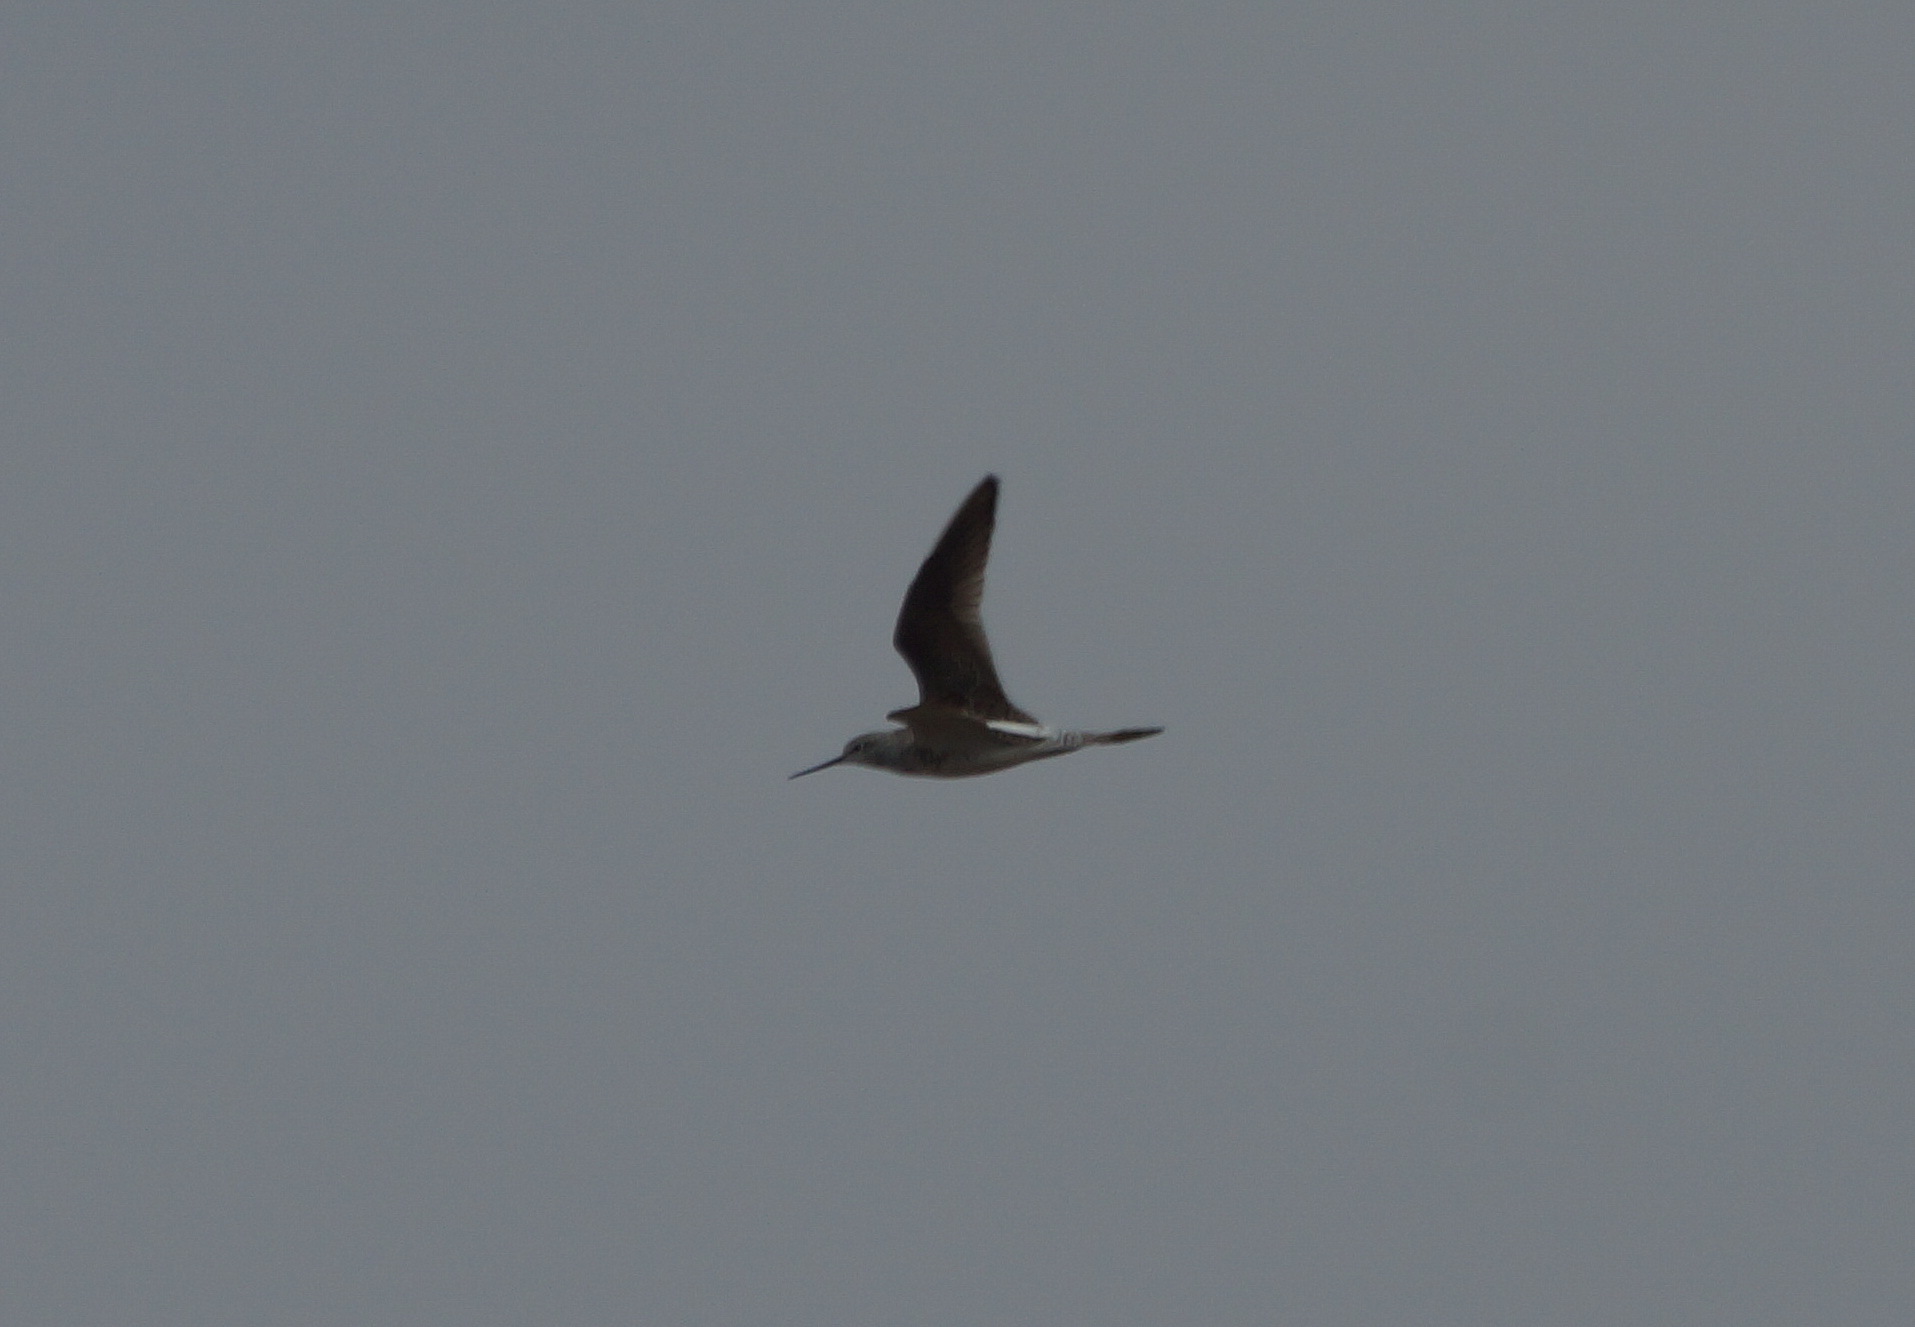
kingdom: Animalia
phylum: Chordata
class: Aves
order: Charadriiformes
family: Scolopacidae
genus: Tringa
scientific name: Tringa stagnatilis
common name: Marsh sandpiper
